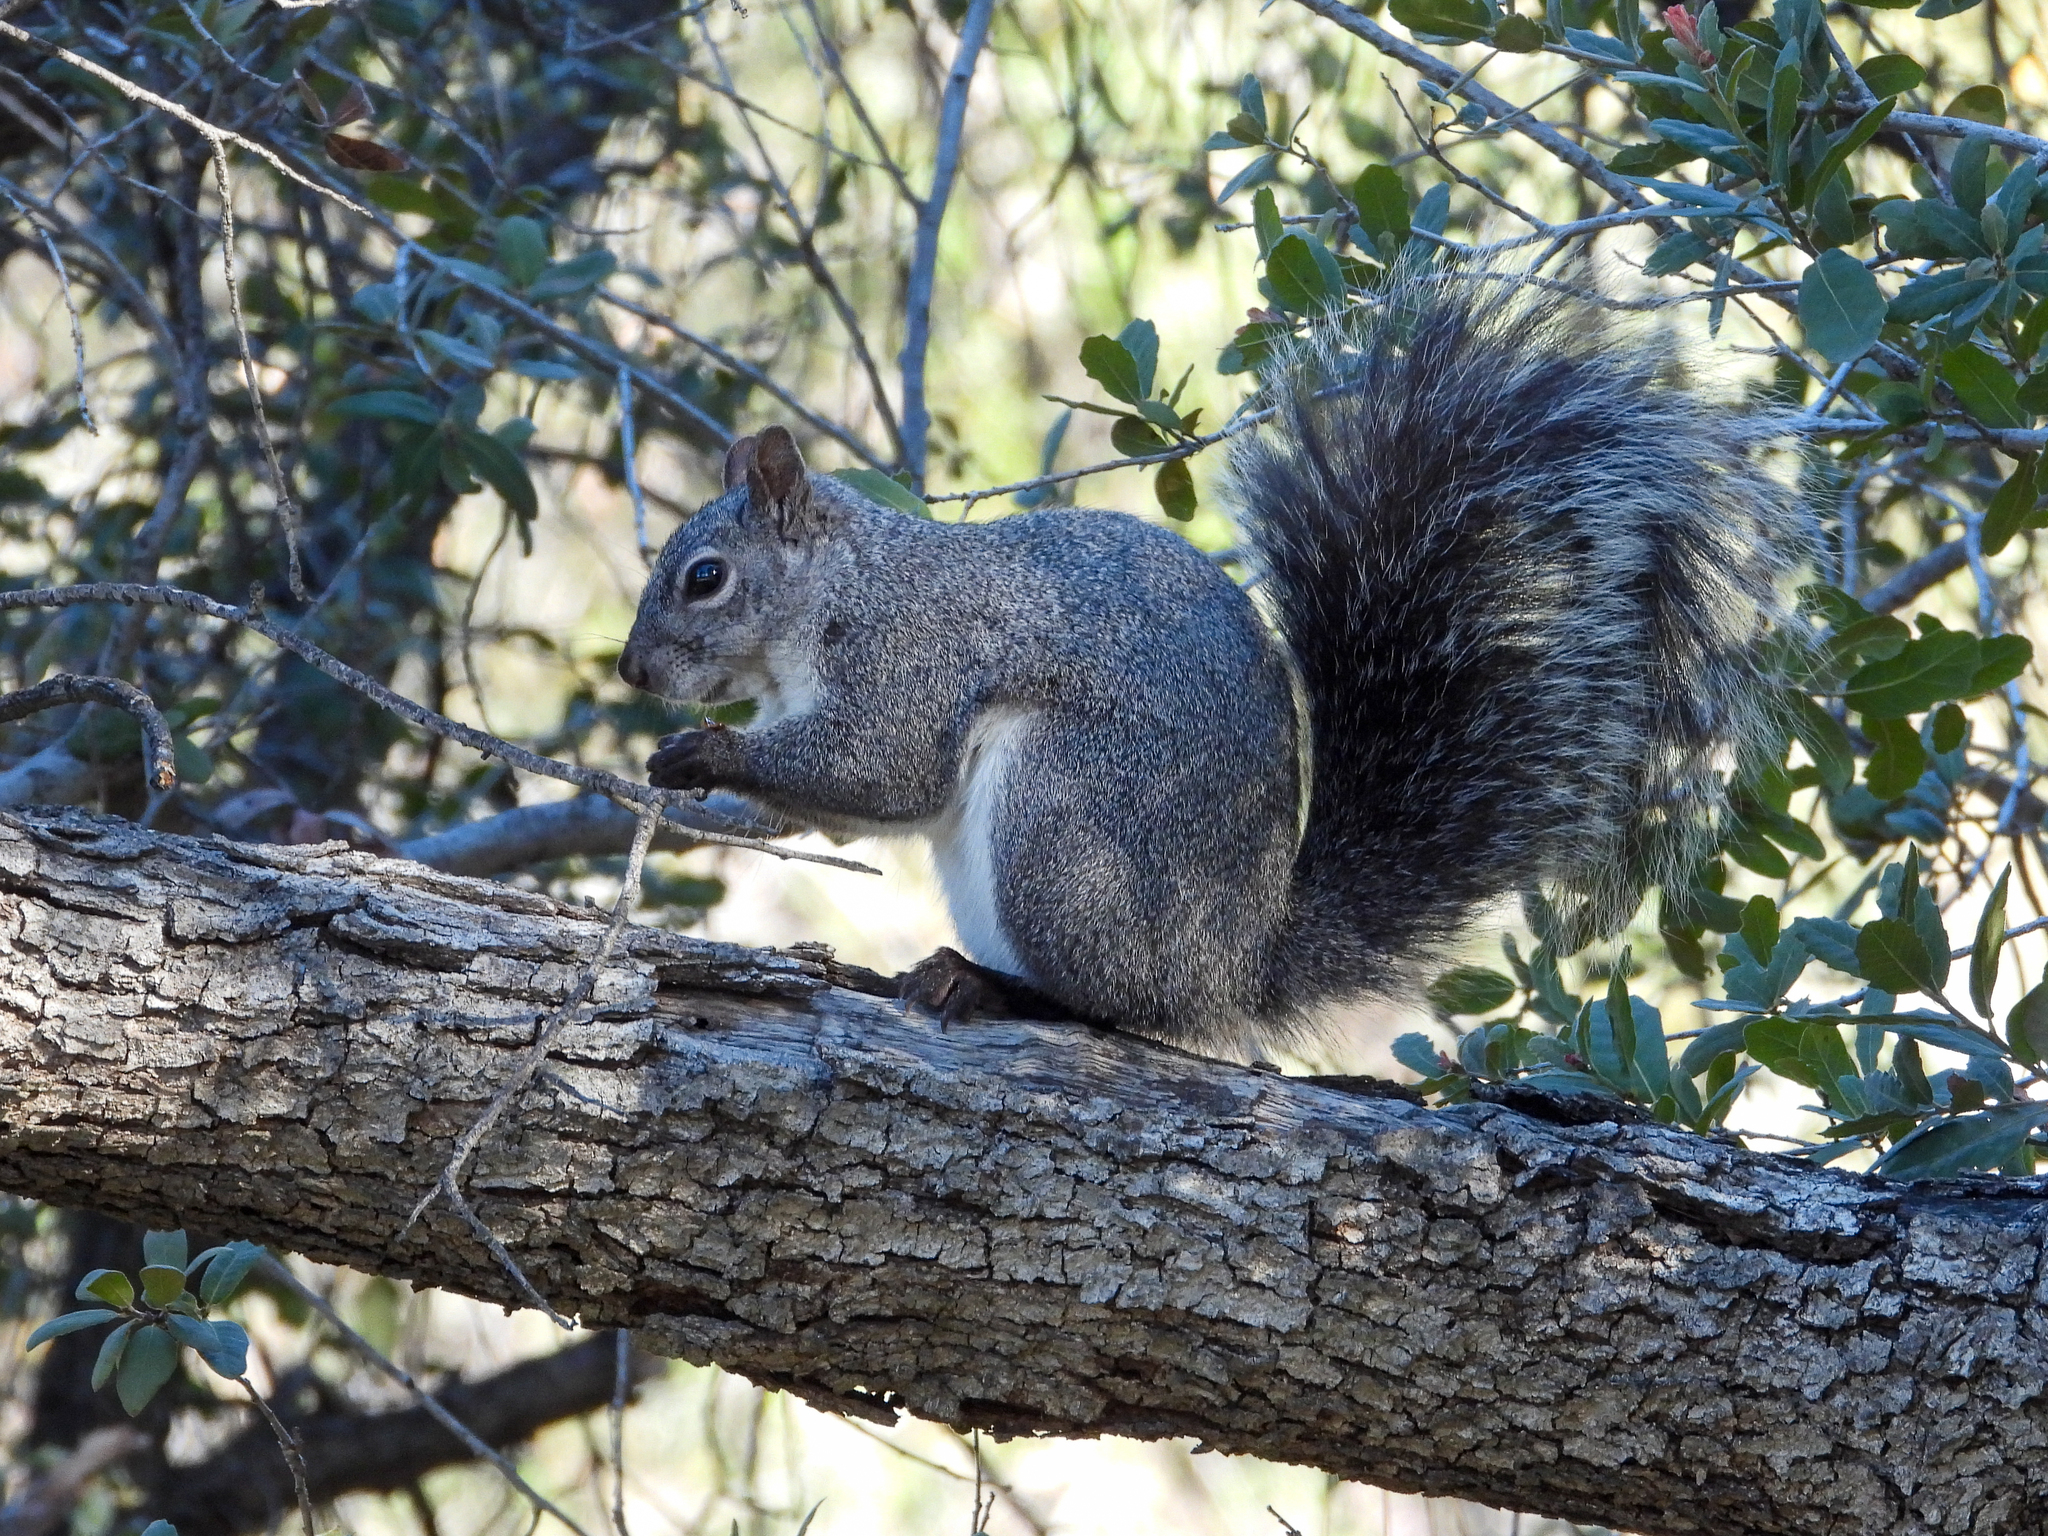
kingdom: Animalia
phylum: Chordata
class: Mammalia
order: Rodentia
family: Sciuridae
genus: Sciurus
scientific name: Sciurus griseus
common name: Western gray squirrel
